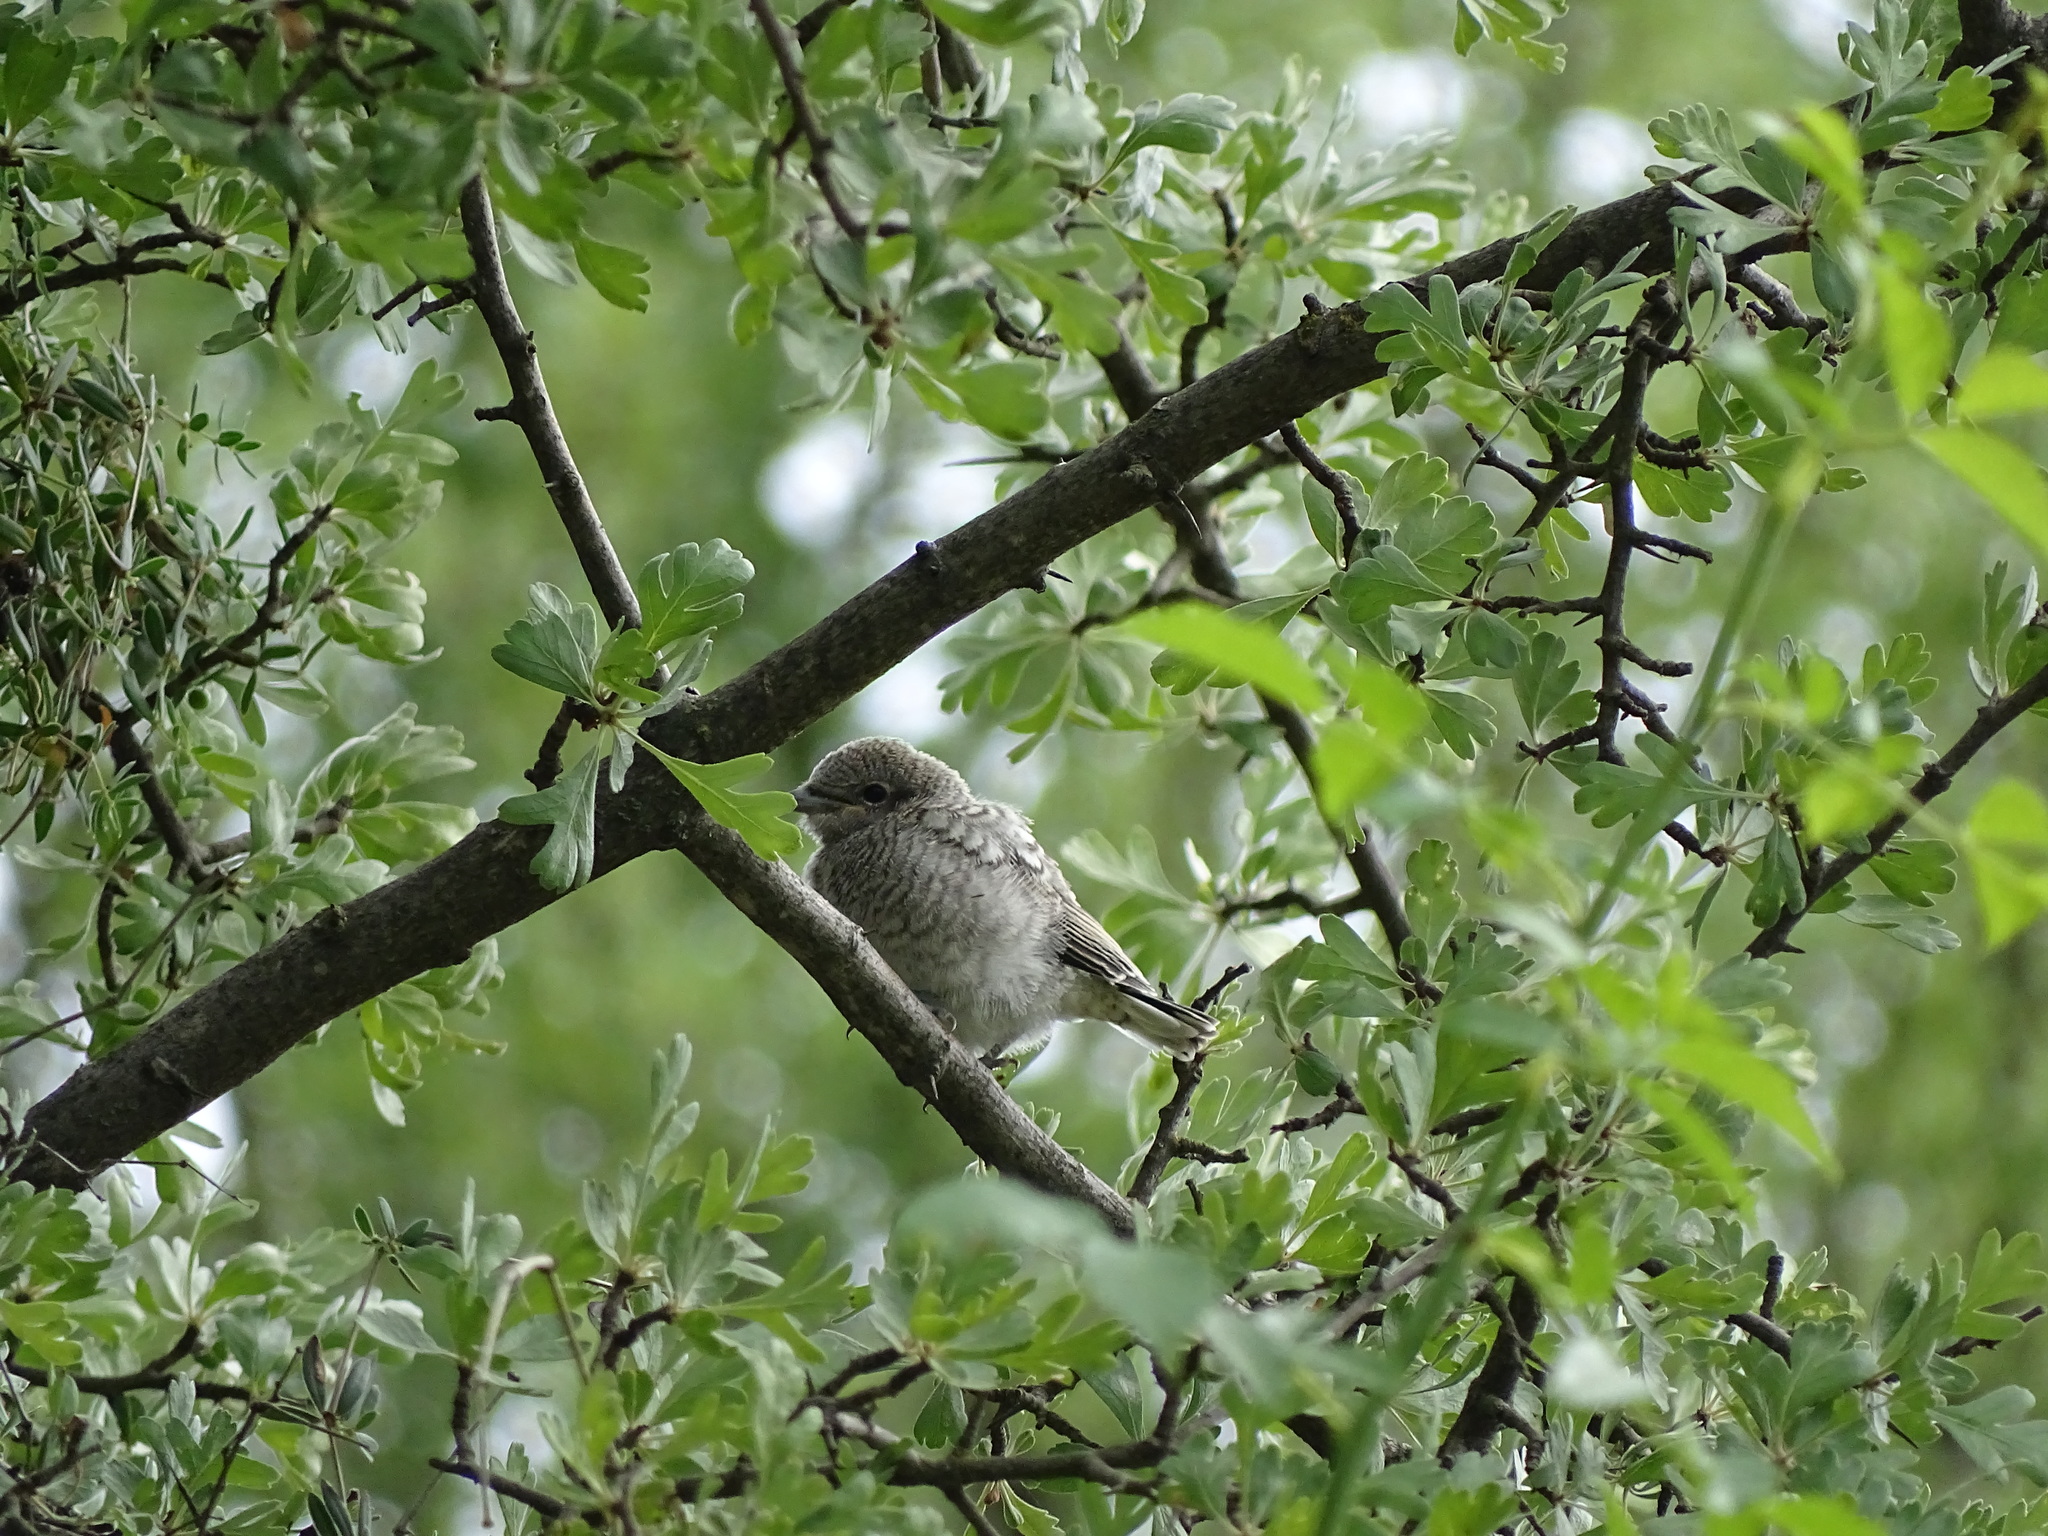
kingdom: Animalia
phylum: Chordata
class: Aves
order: Passeriformes
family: Laniidae
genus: Lanius
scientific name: Lanius nubicus
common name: Masked shrike
